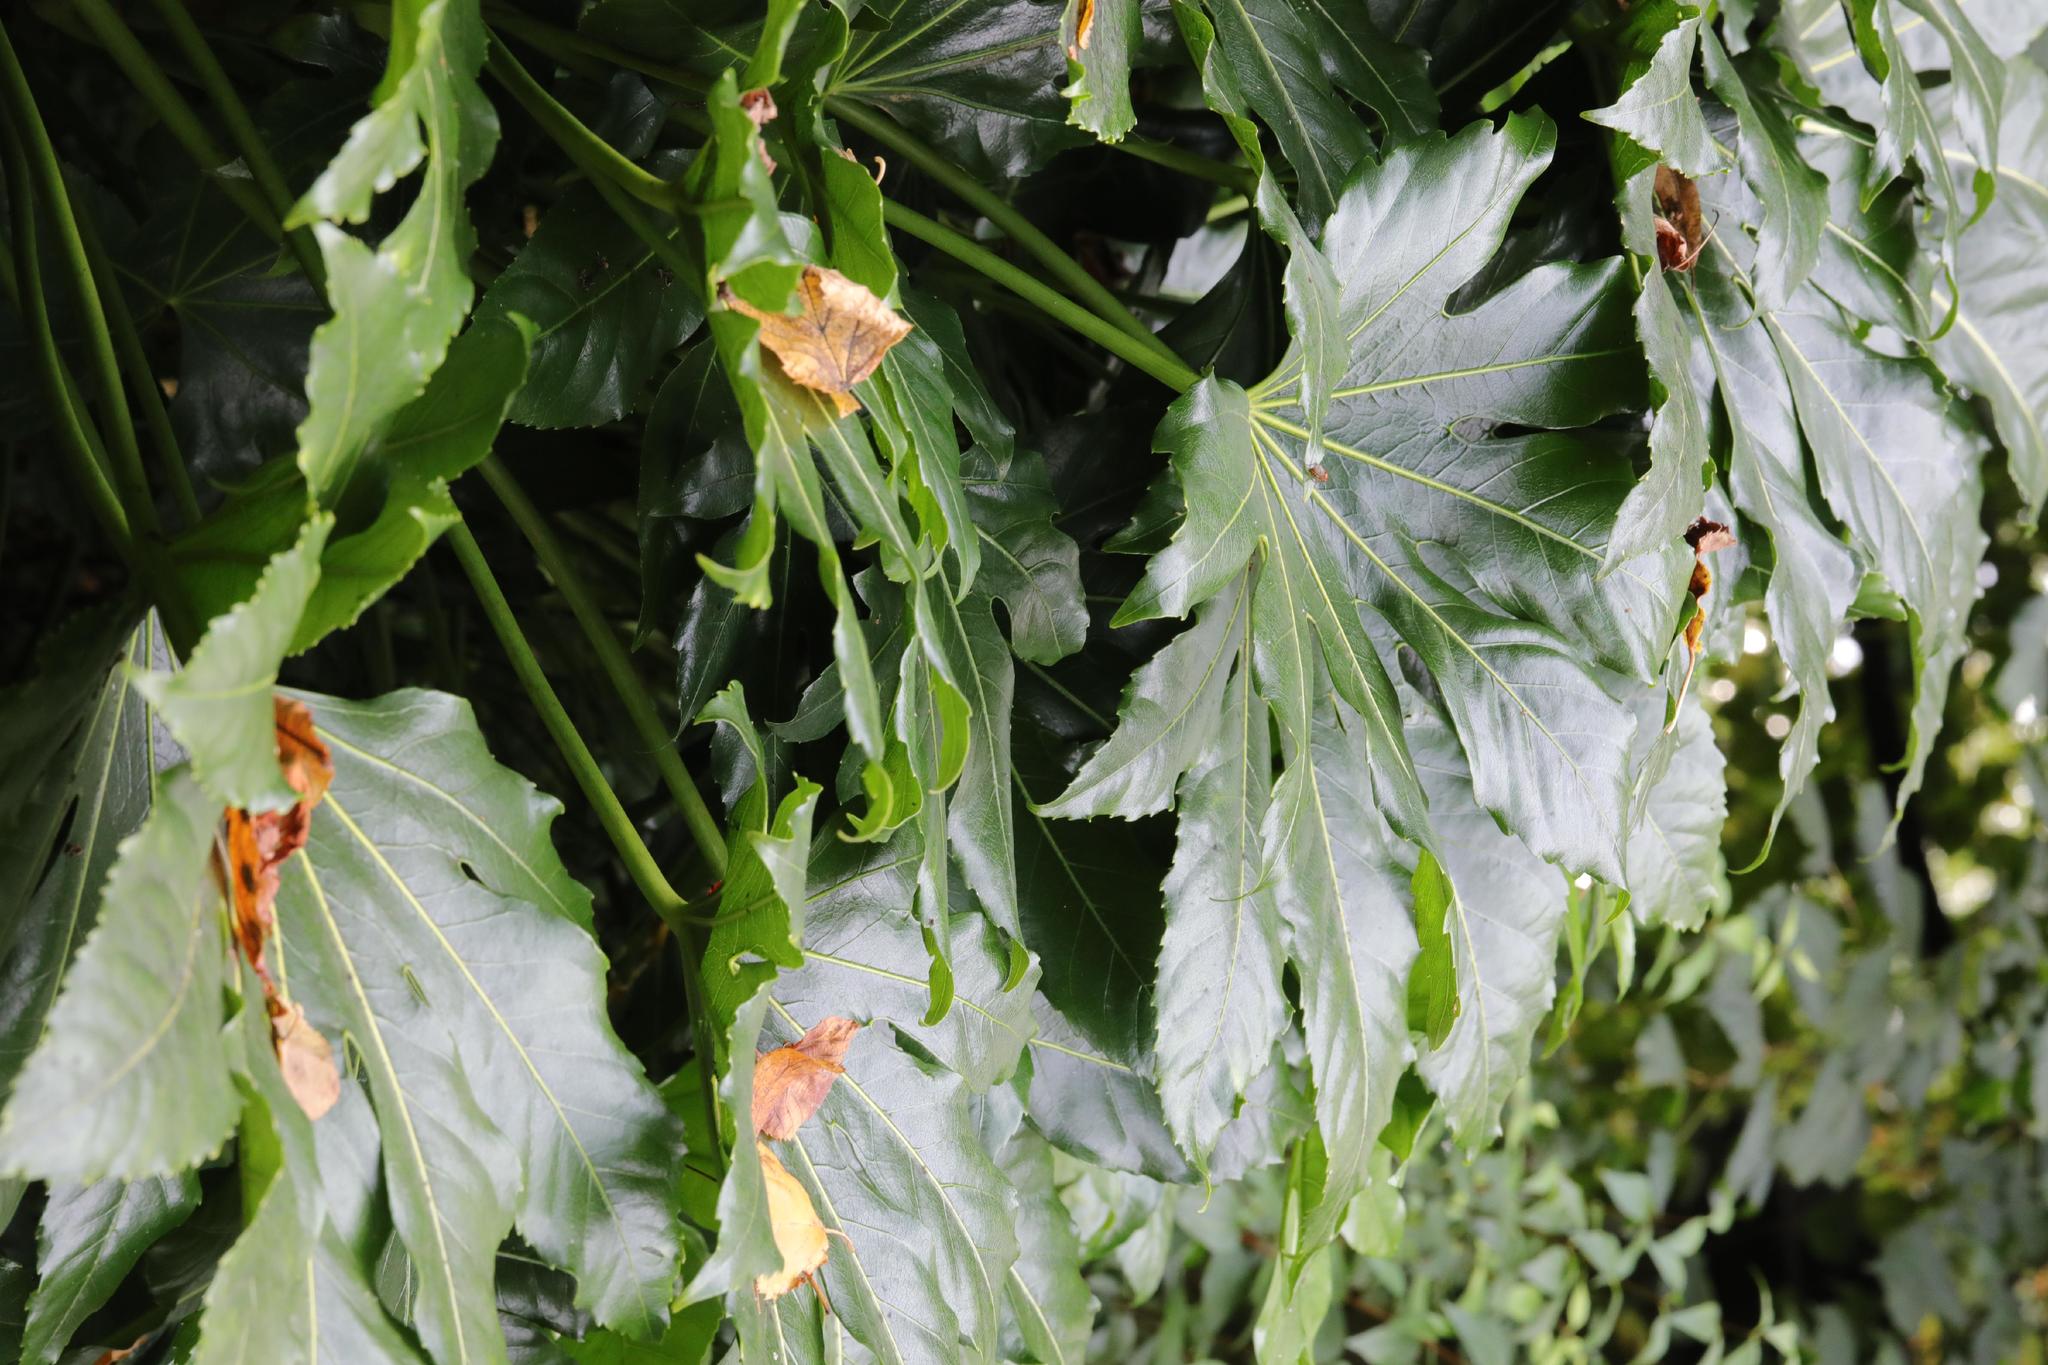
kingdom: Plantae
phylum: Tracheophyta
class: Magnoliopsida
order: Apiales
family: Araliaceae
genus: Fatsia
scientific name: Fatsia japonica
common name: Fatsia
